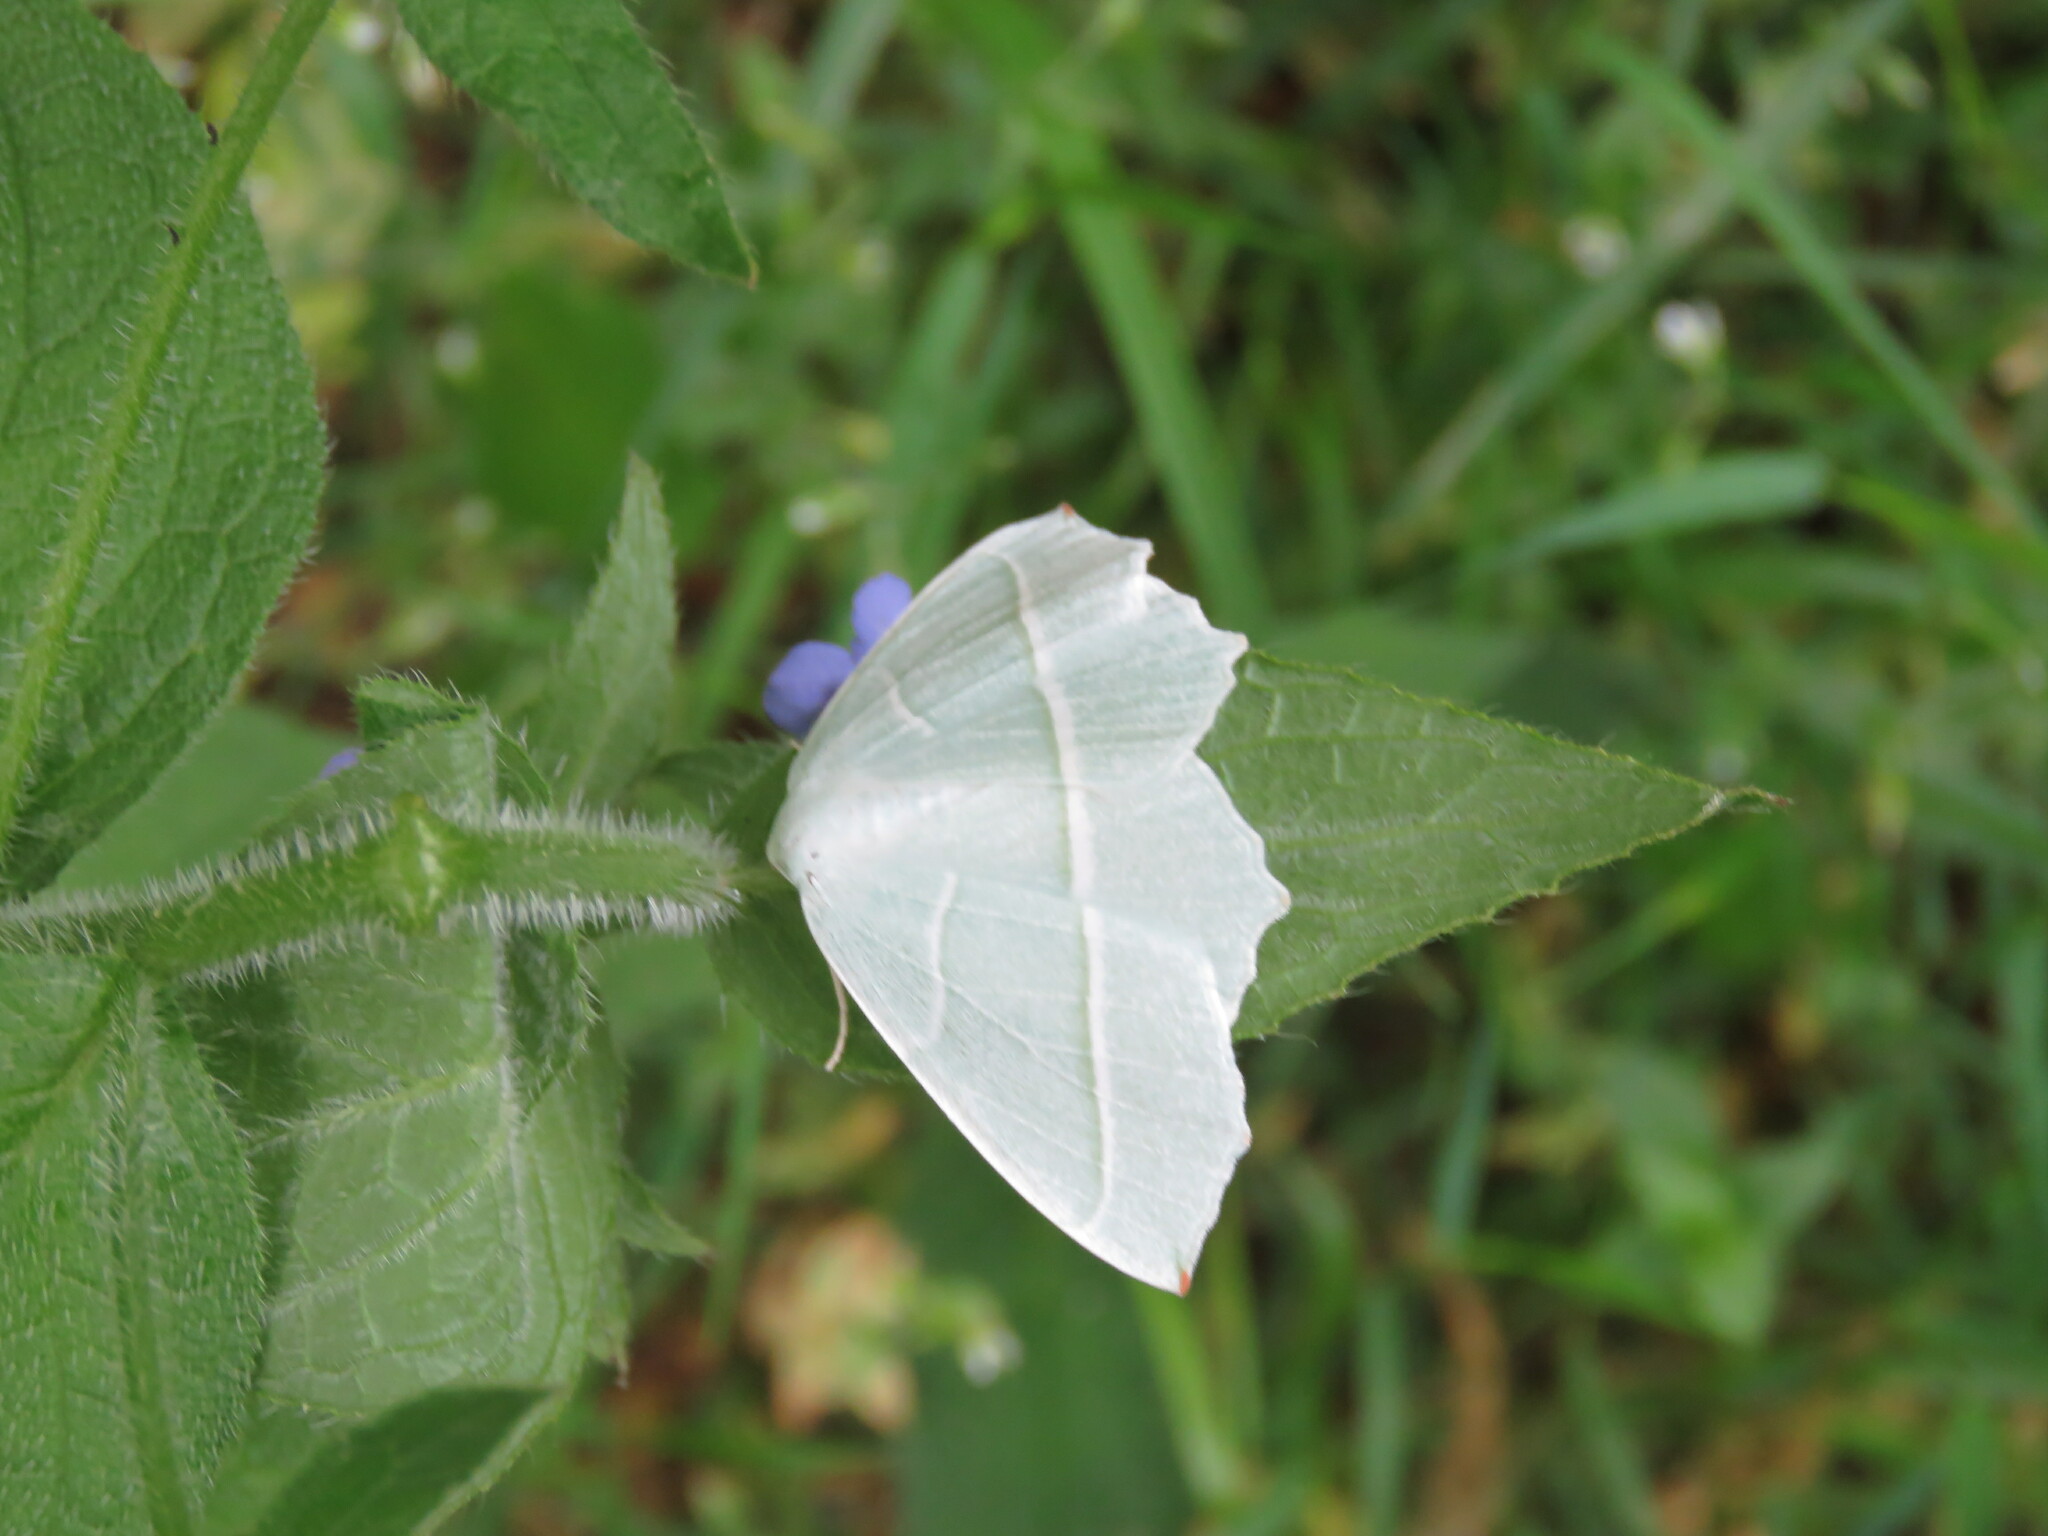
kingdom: Animalia
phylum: Arthropoda
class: Insecta
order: Lepidoptera
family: Geometridae
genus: Campaea
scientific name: Campaea margaritaria
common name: Light emerald
